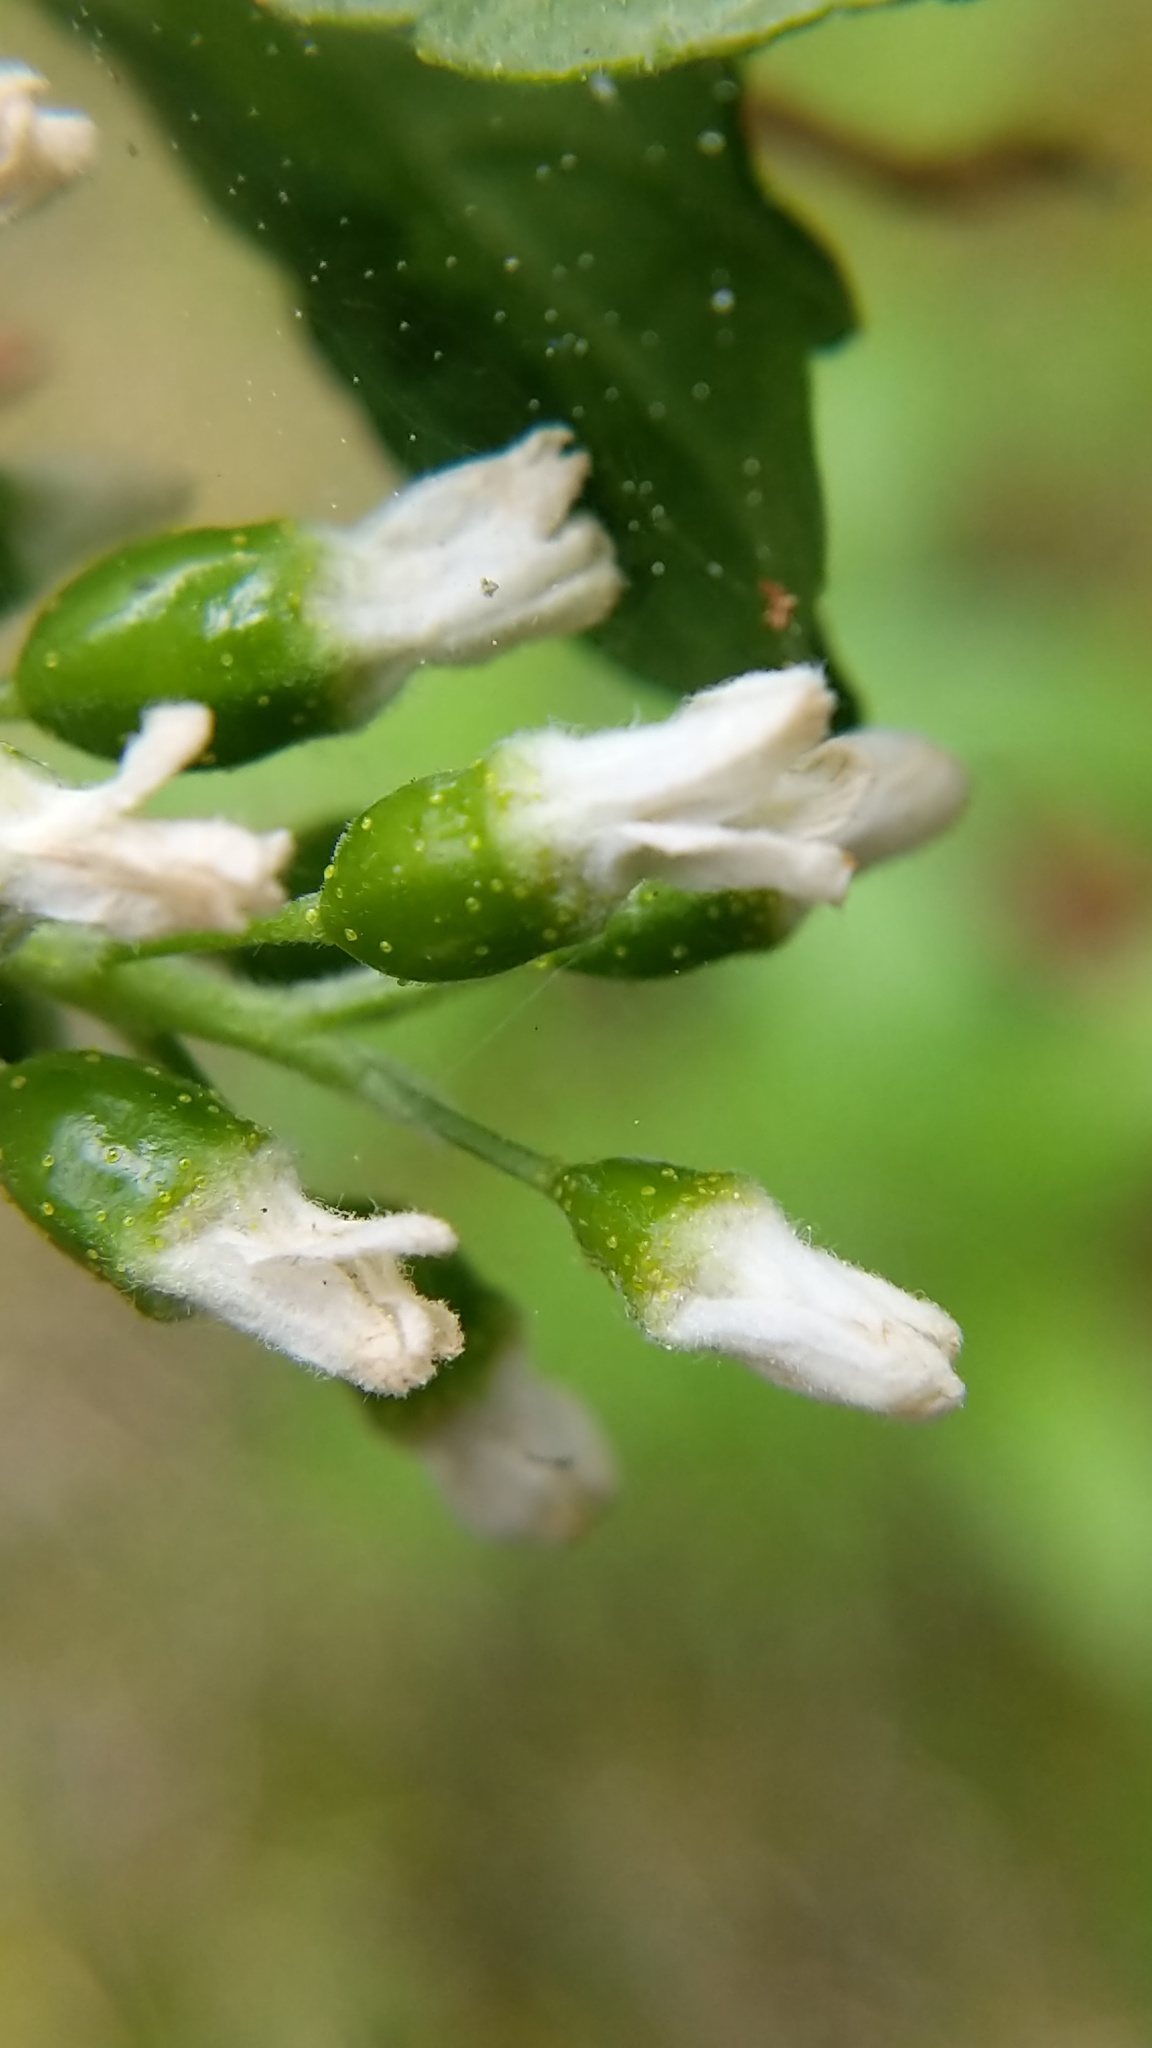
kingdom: Plantae
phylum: Tracheophyta
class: Magnoliopsida
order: Saxifragales
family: Grossulariaceae
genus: Ribes
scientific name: Ribes hudsonianum
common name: Northern black currant
